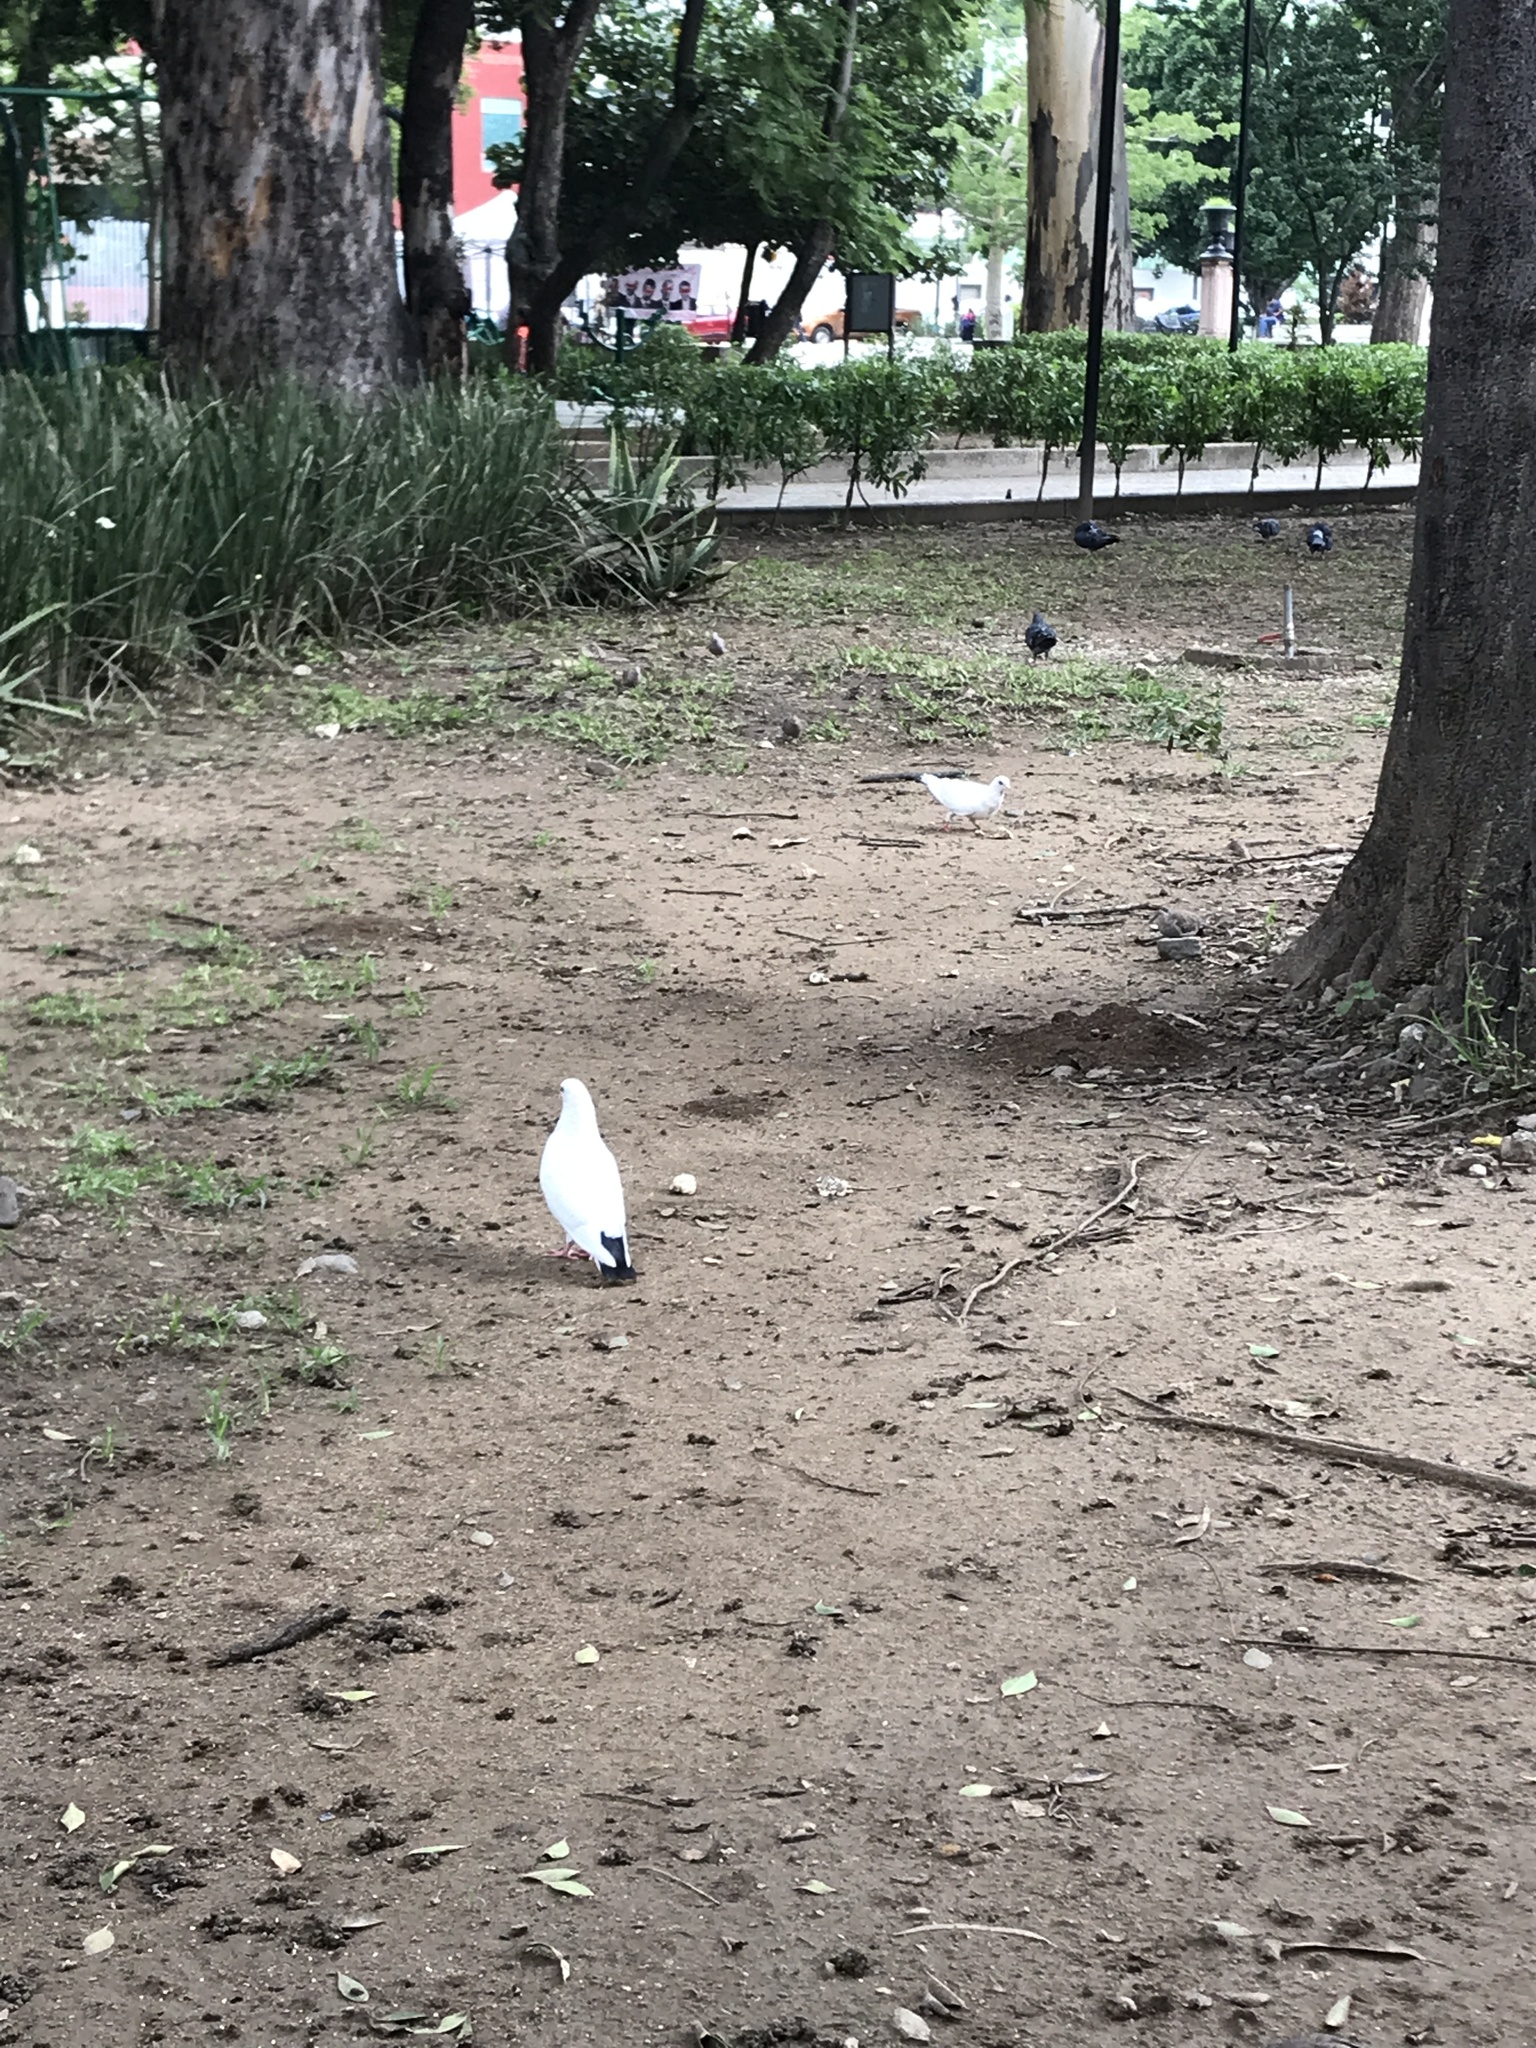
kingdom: Animalia
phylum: Chordata
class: Aves
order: Columbiformes
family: Columbidae
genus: Columba
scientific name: Columba livia
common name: Rock pigeon
